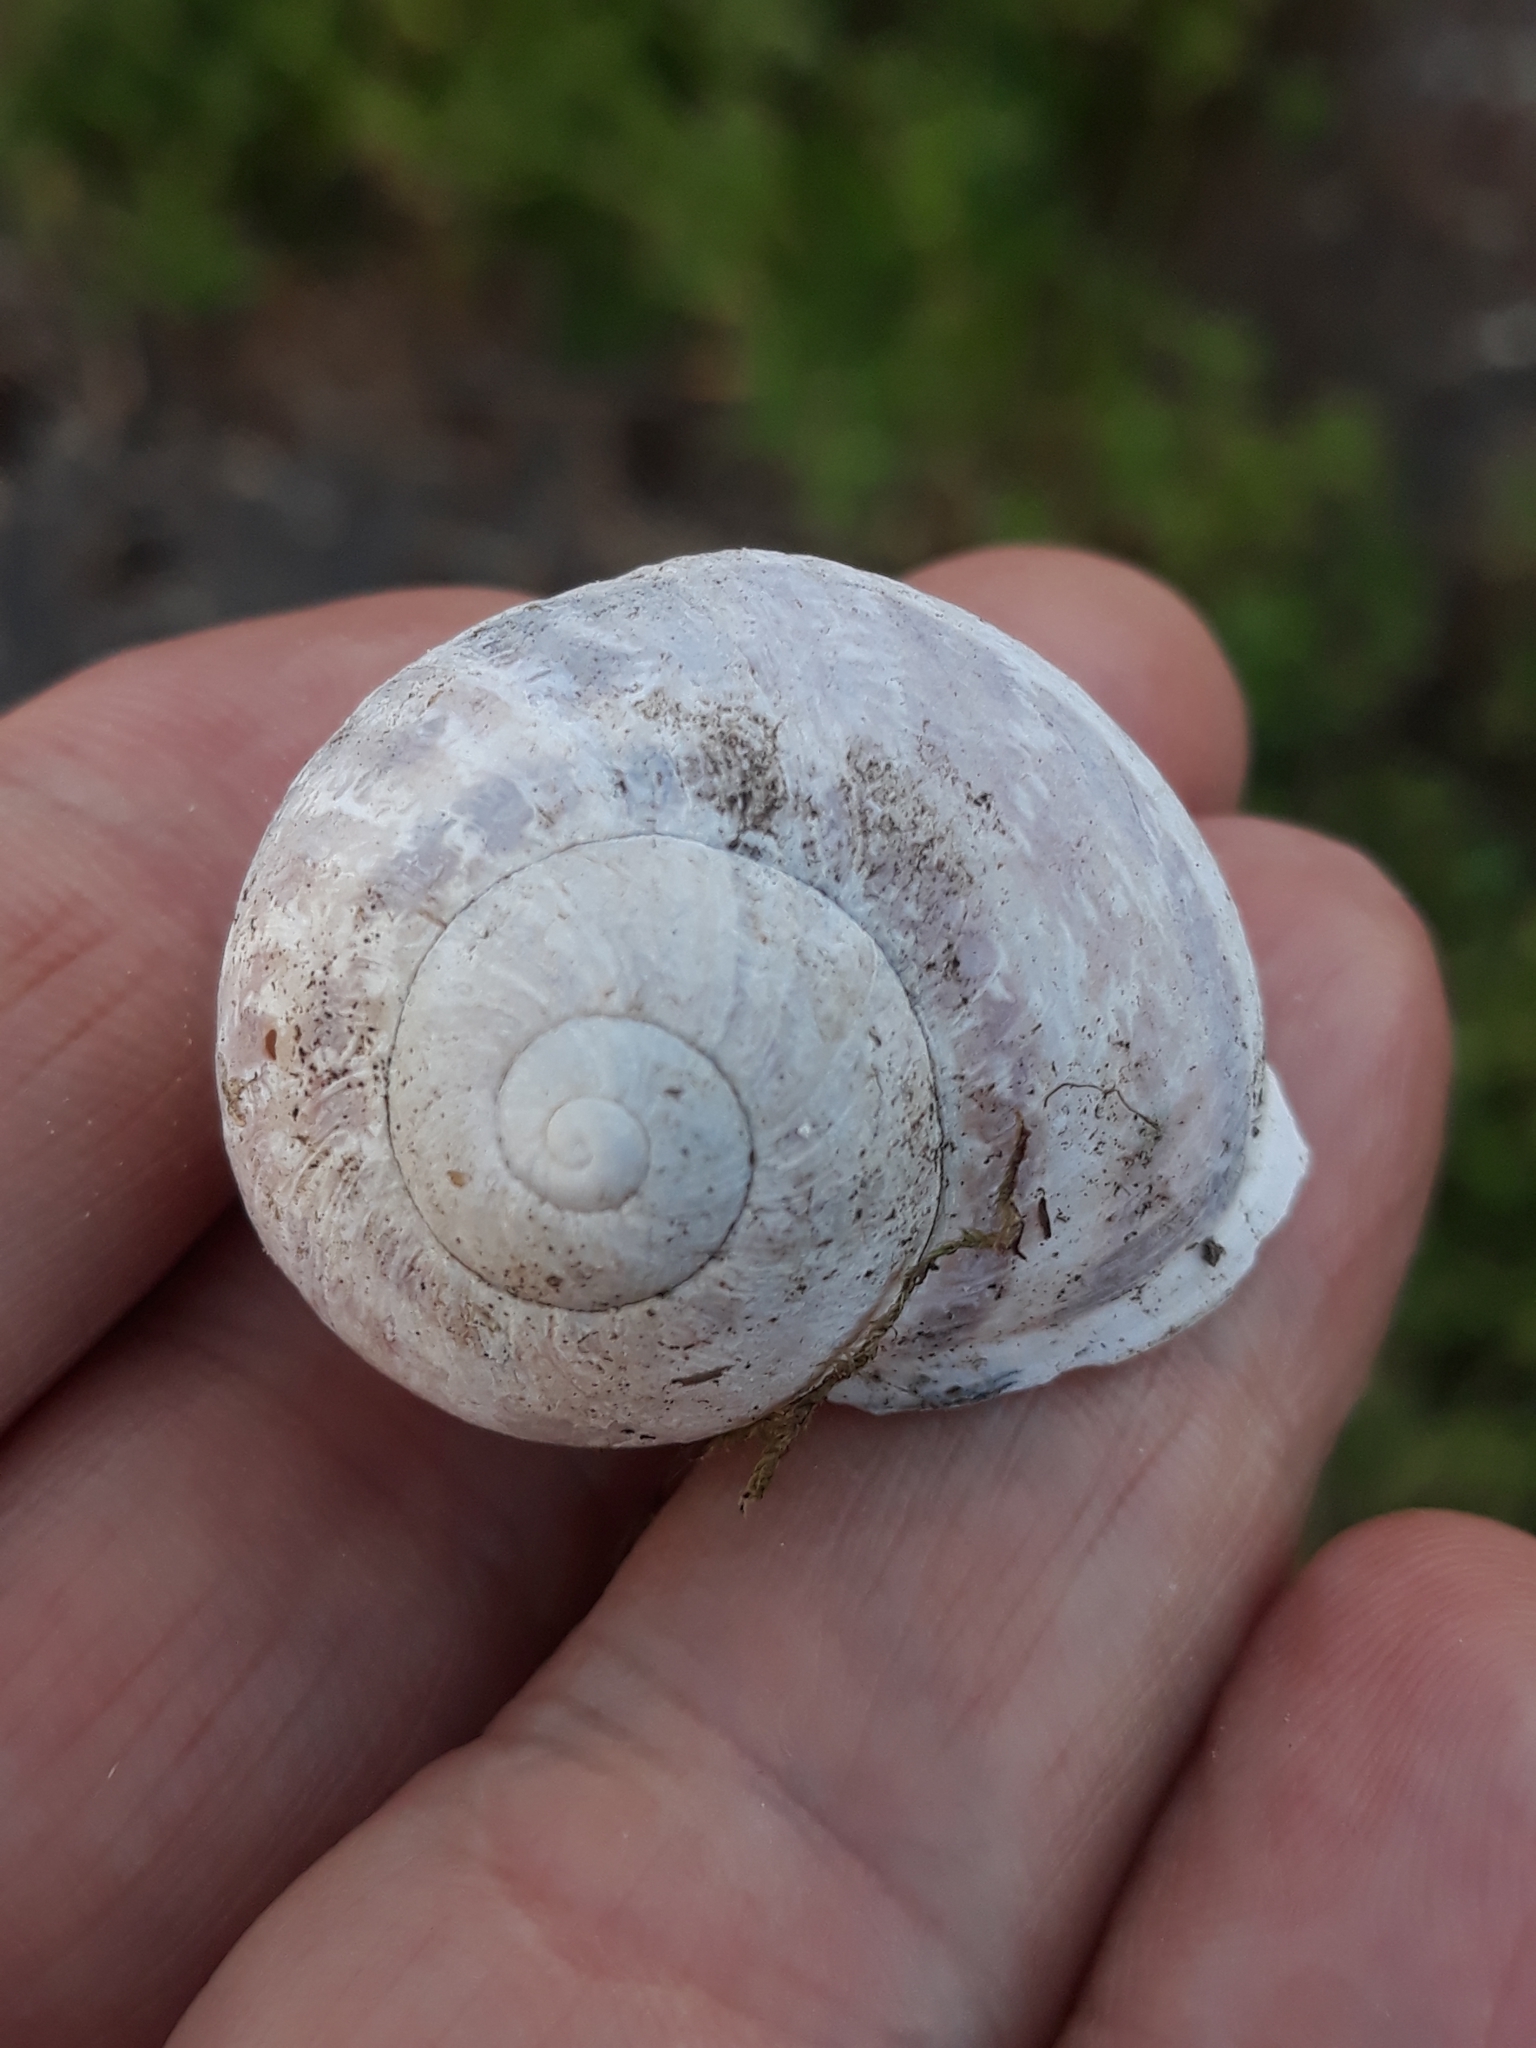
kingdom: Animalia
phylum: Mollusca
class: Gastropoda
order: Stylommatophora
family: Helicidae
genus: Cornu
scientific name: Cornu aspersum
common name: Brown garden snail
